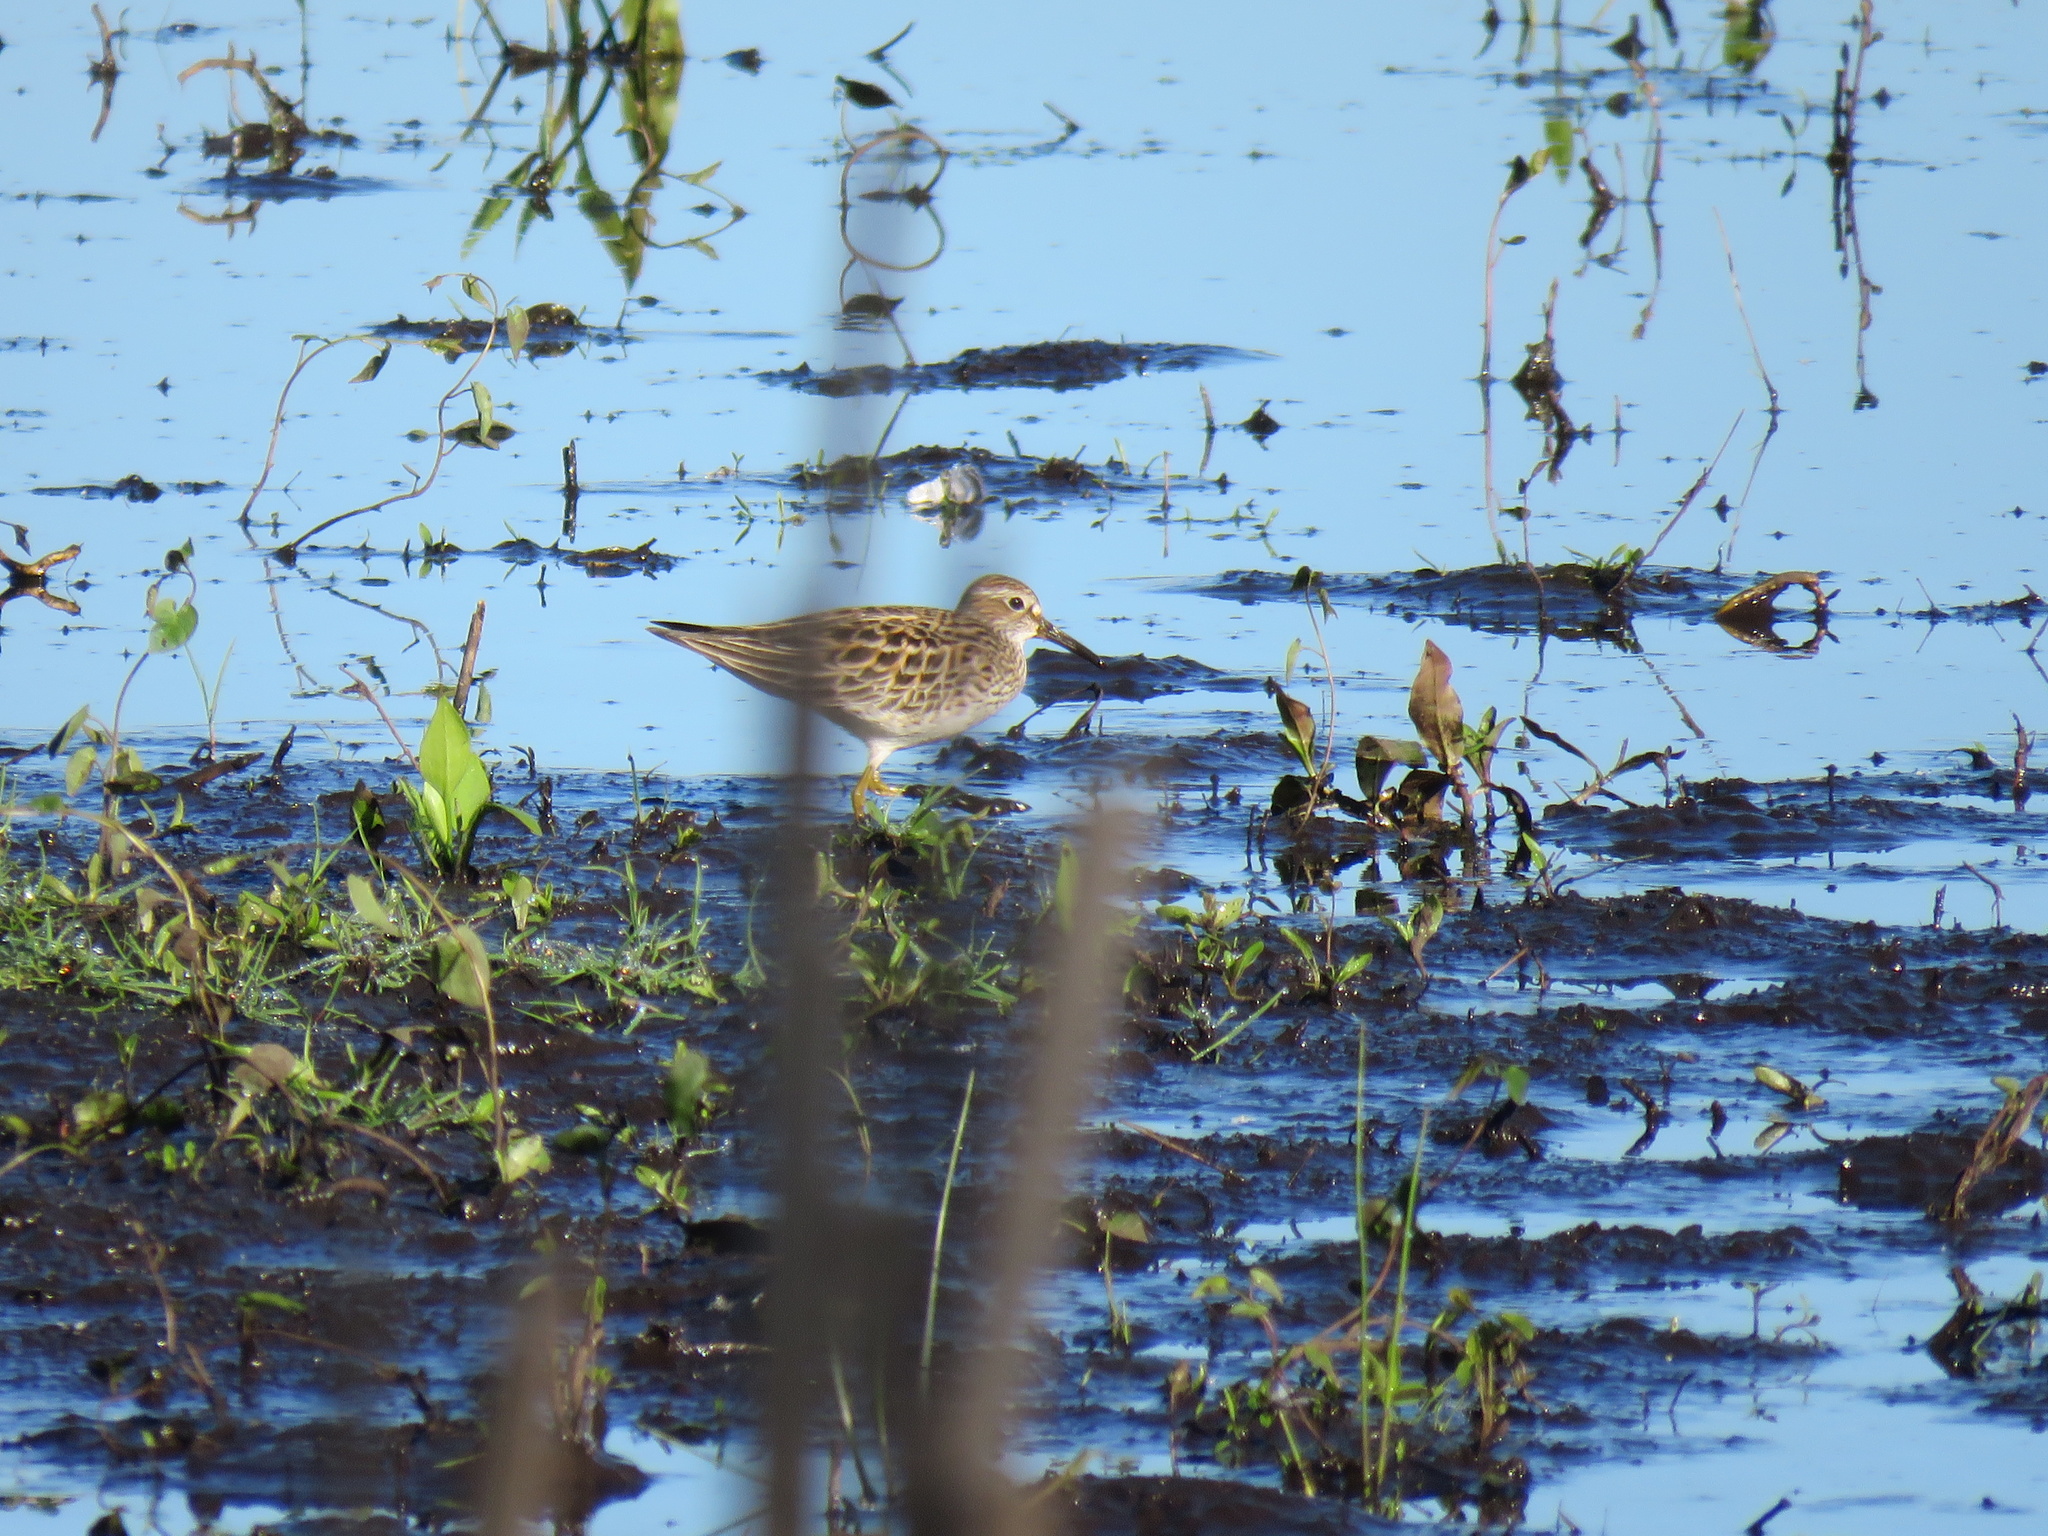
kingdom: Animalia
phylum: Chordata
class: Aves
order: Charadriiformes
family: Scolopacidae
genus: Calidris
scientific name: Calidris melanotos
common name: Pectoral sandpiper
